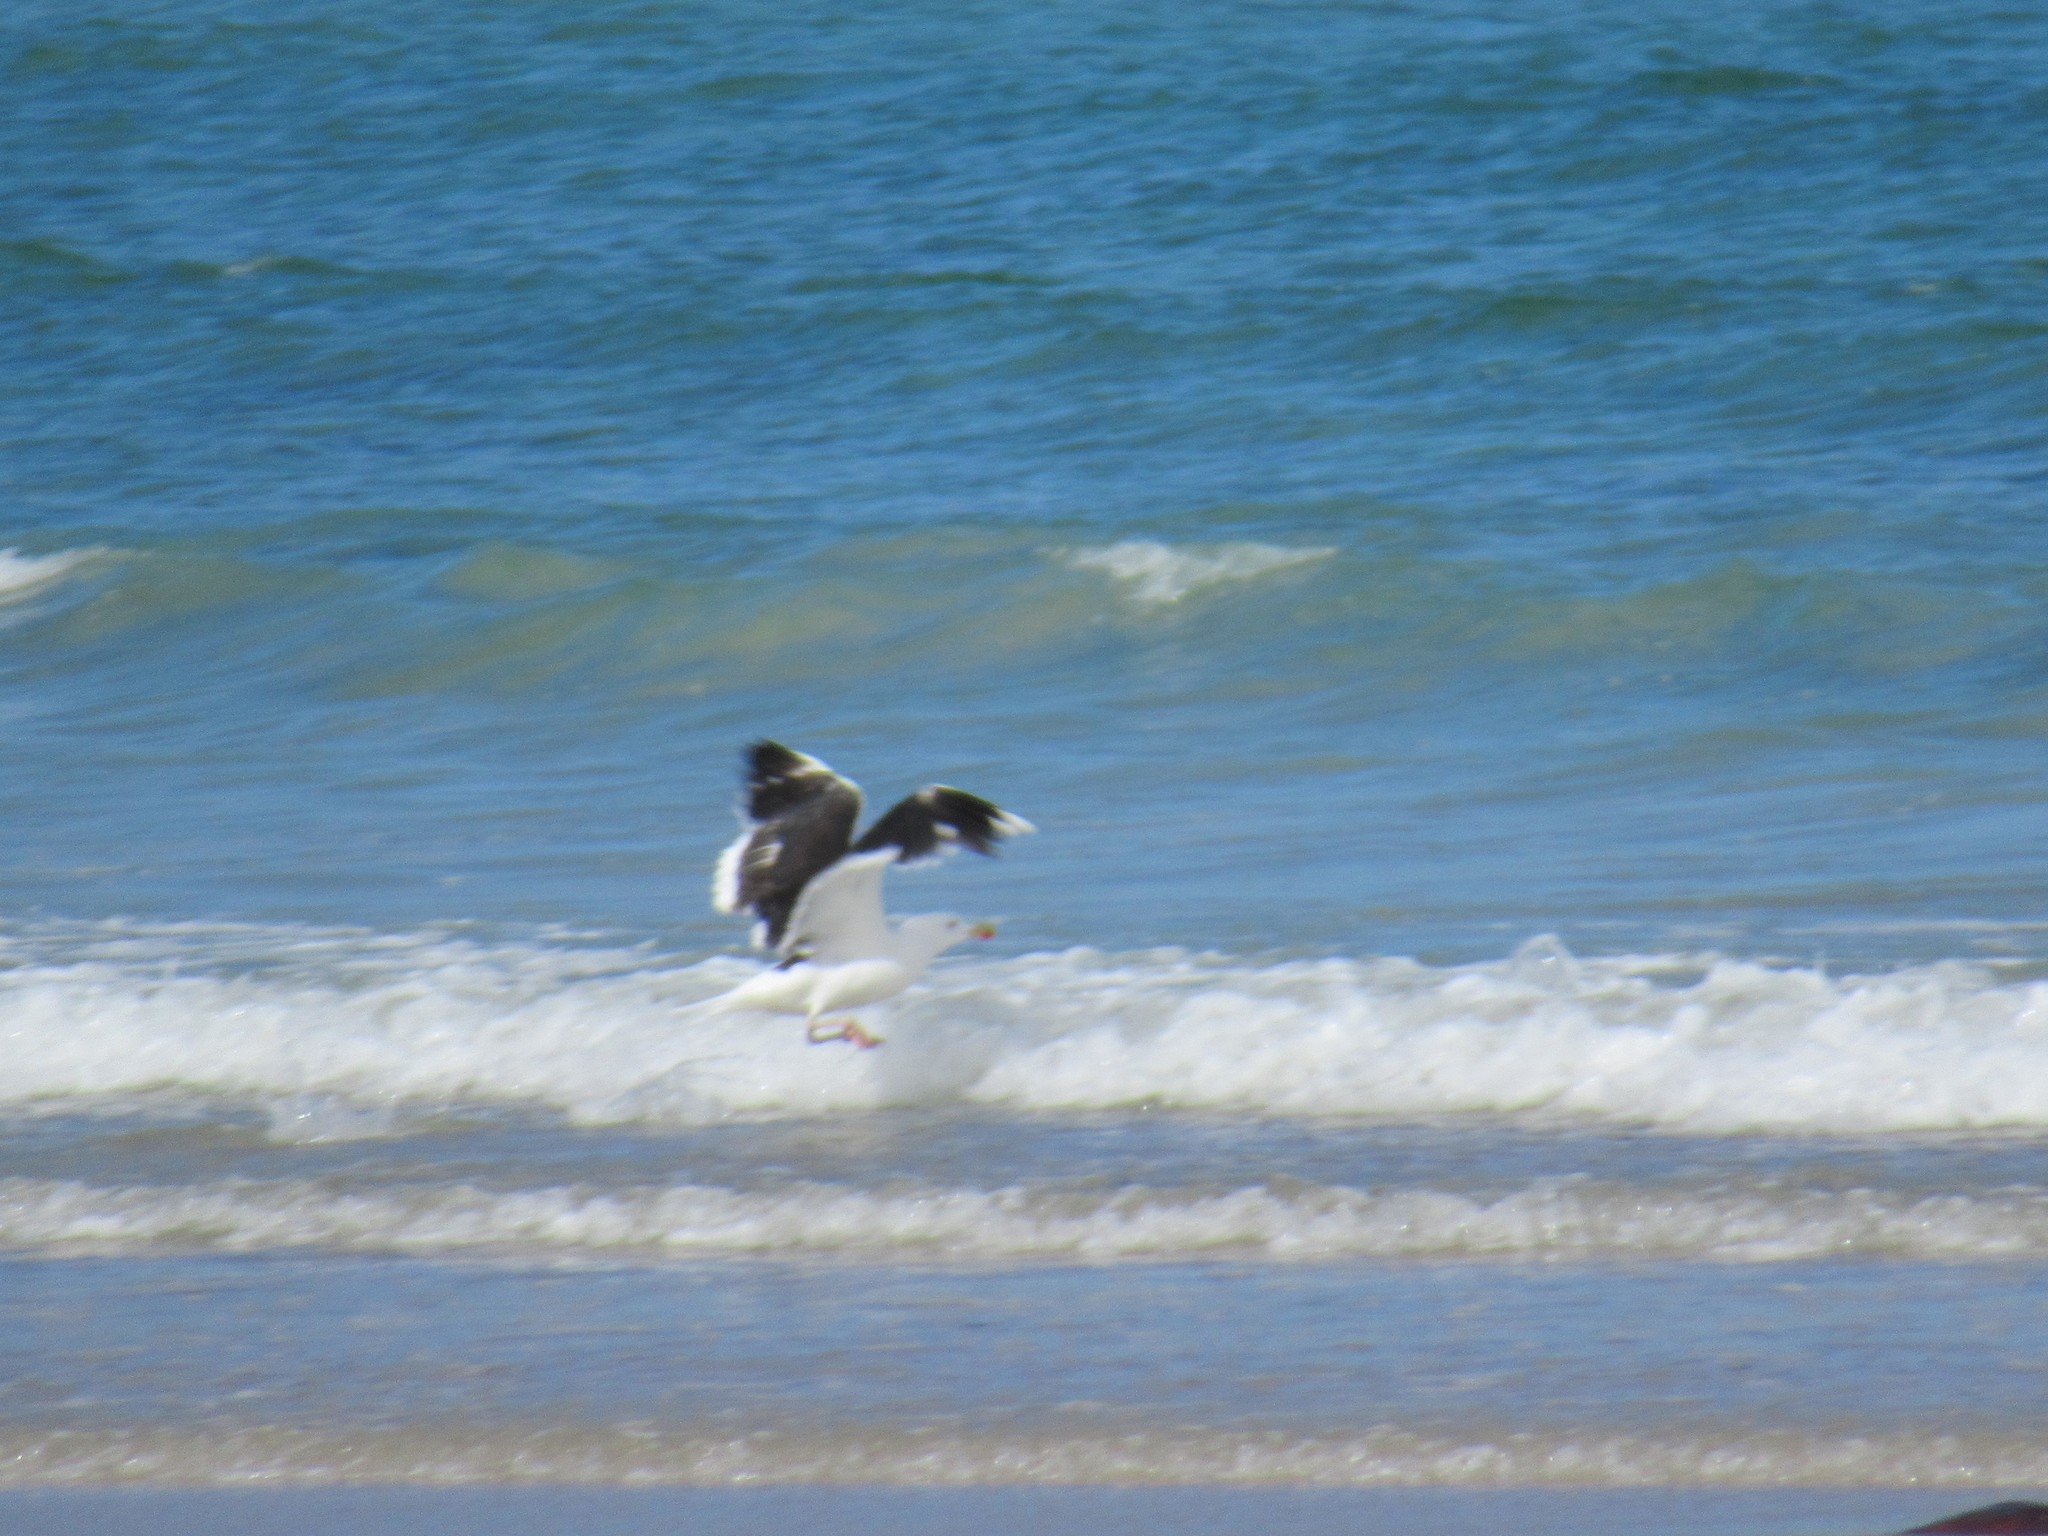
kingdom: Animalia
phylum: Chordata
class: Aves
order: Charadriiformes
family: Laridae
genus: Larus
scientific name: Larus marinus
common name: Great black-backed gull
